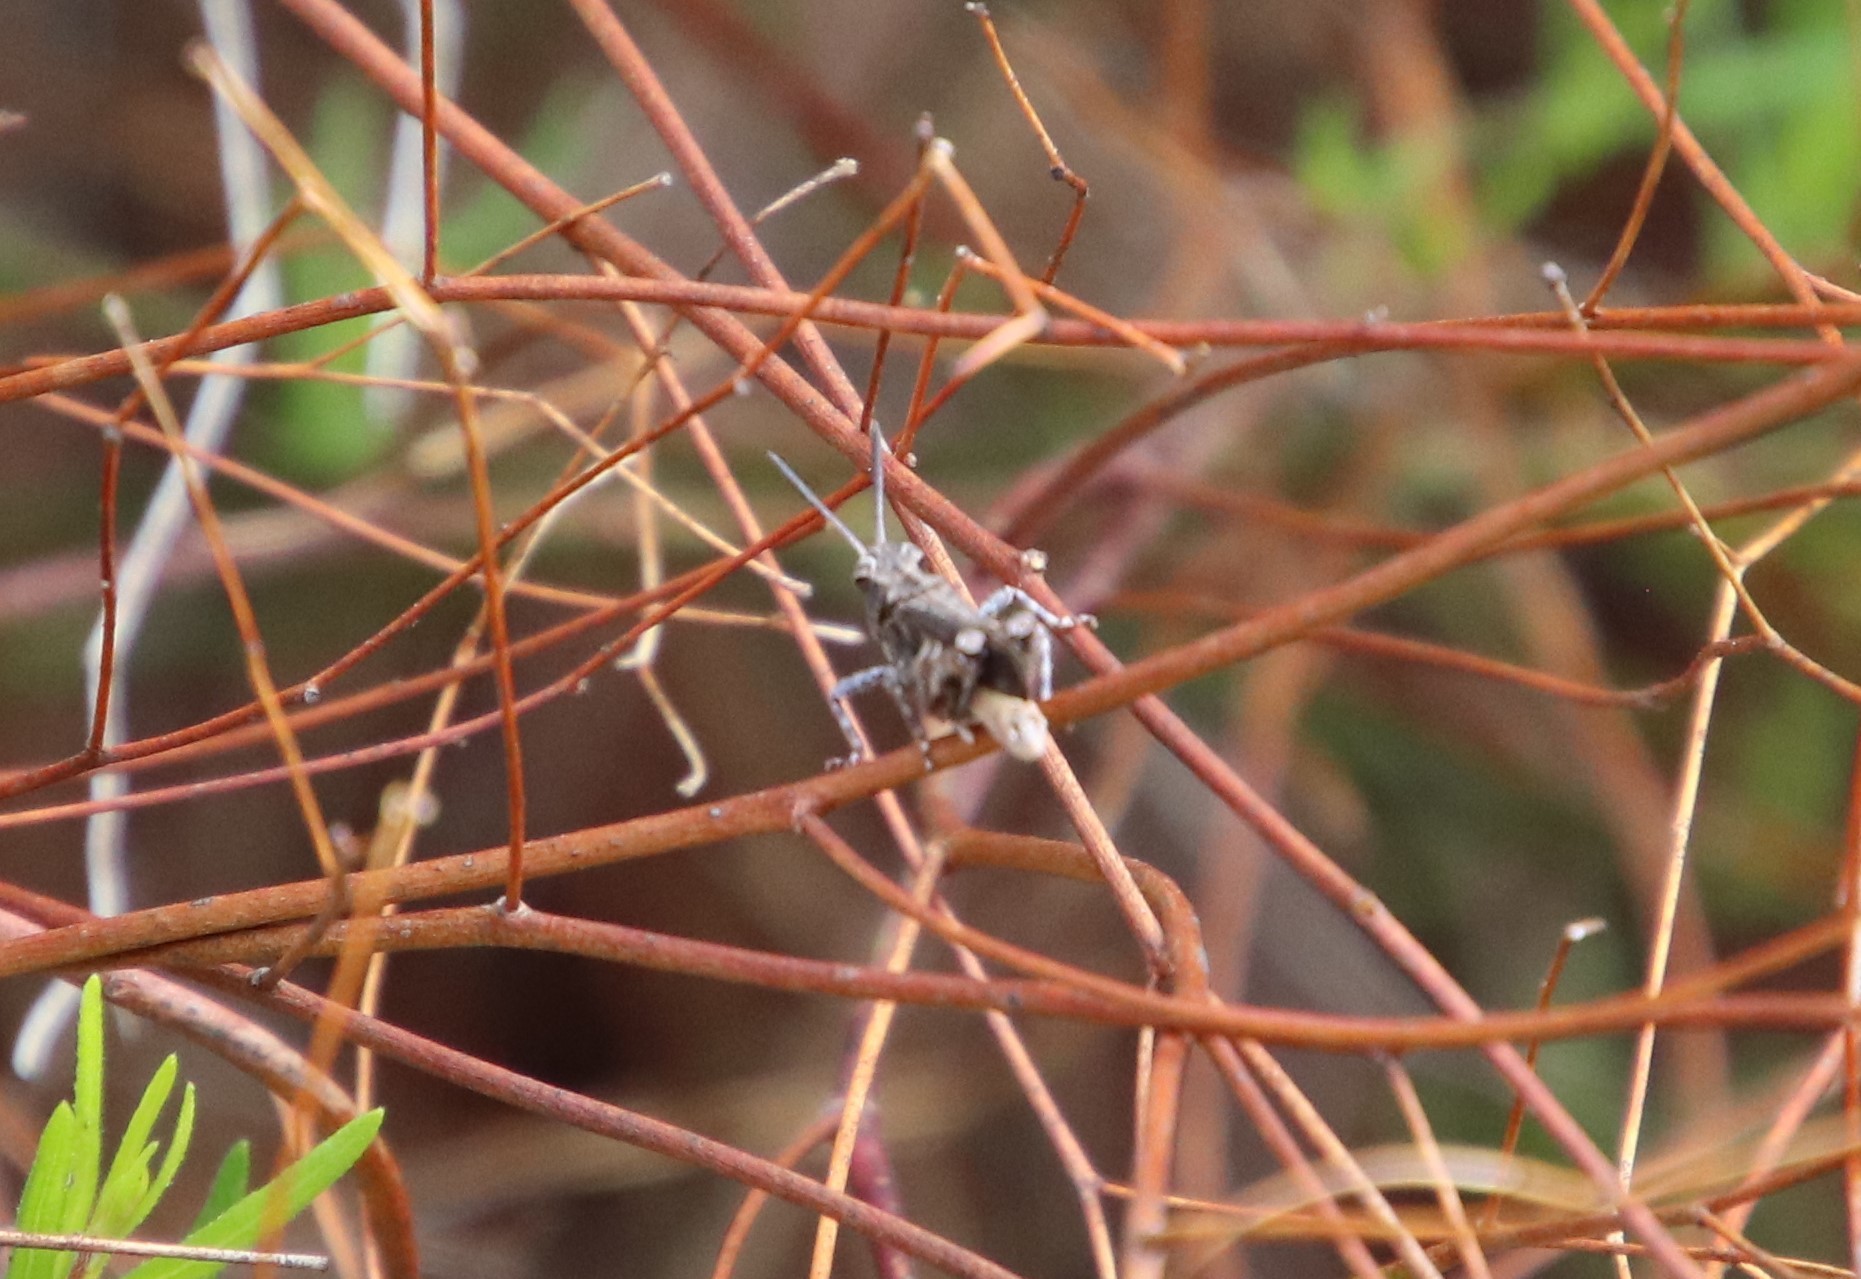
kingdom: Animalia
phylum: Arthropoda
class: Insecta
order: Orthoptera
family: Acrididae
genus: Chimarocephala
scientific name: Chimarocephala pacifica
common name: Painted meadow grasshopper
